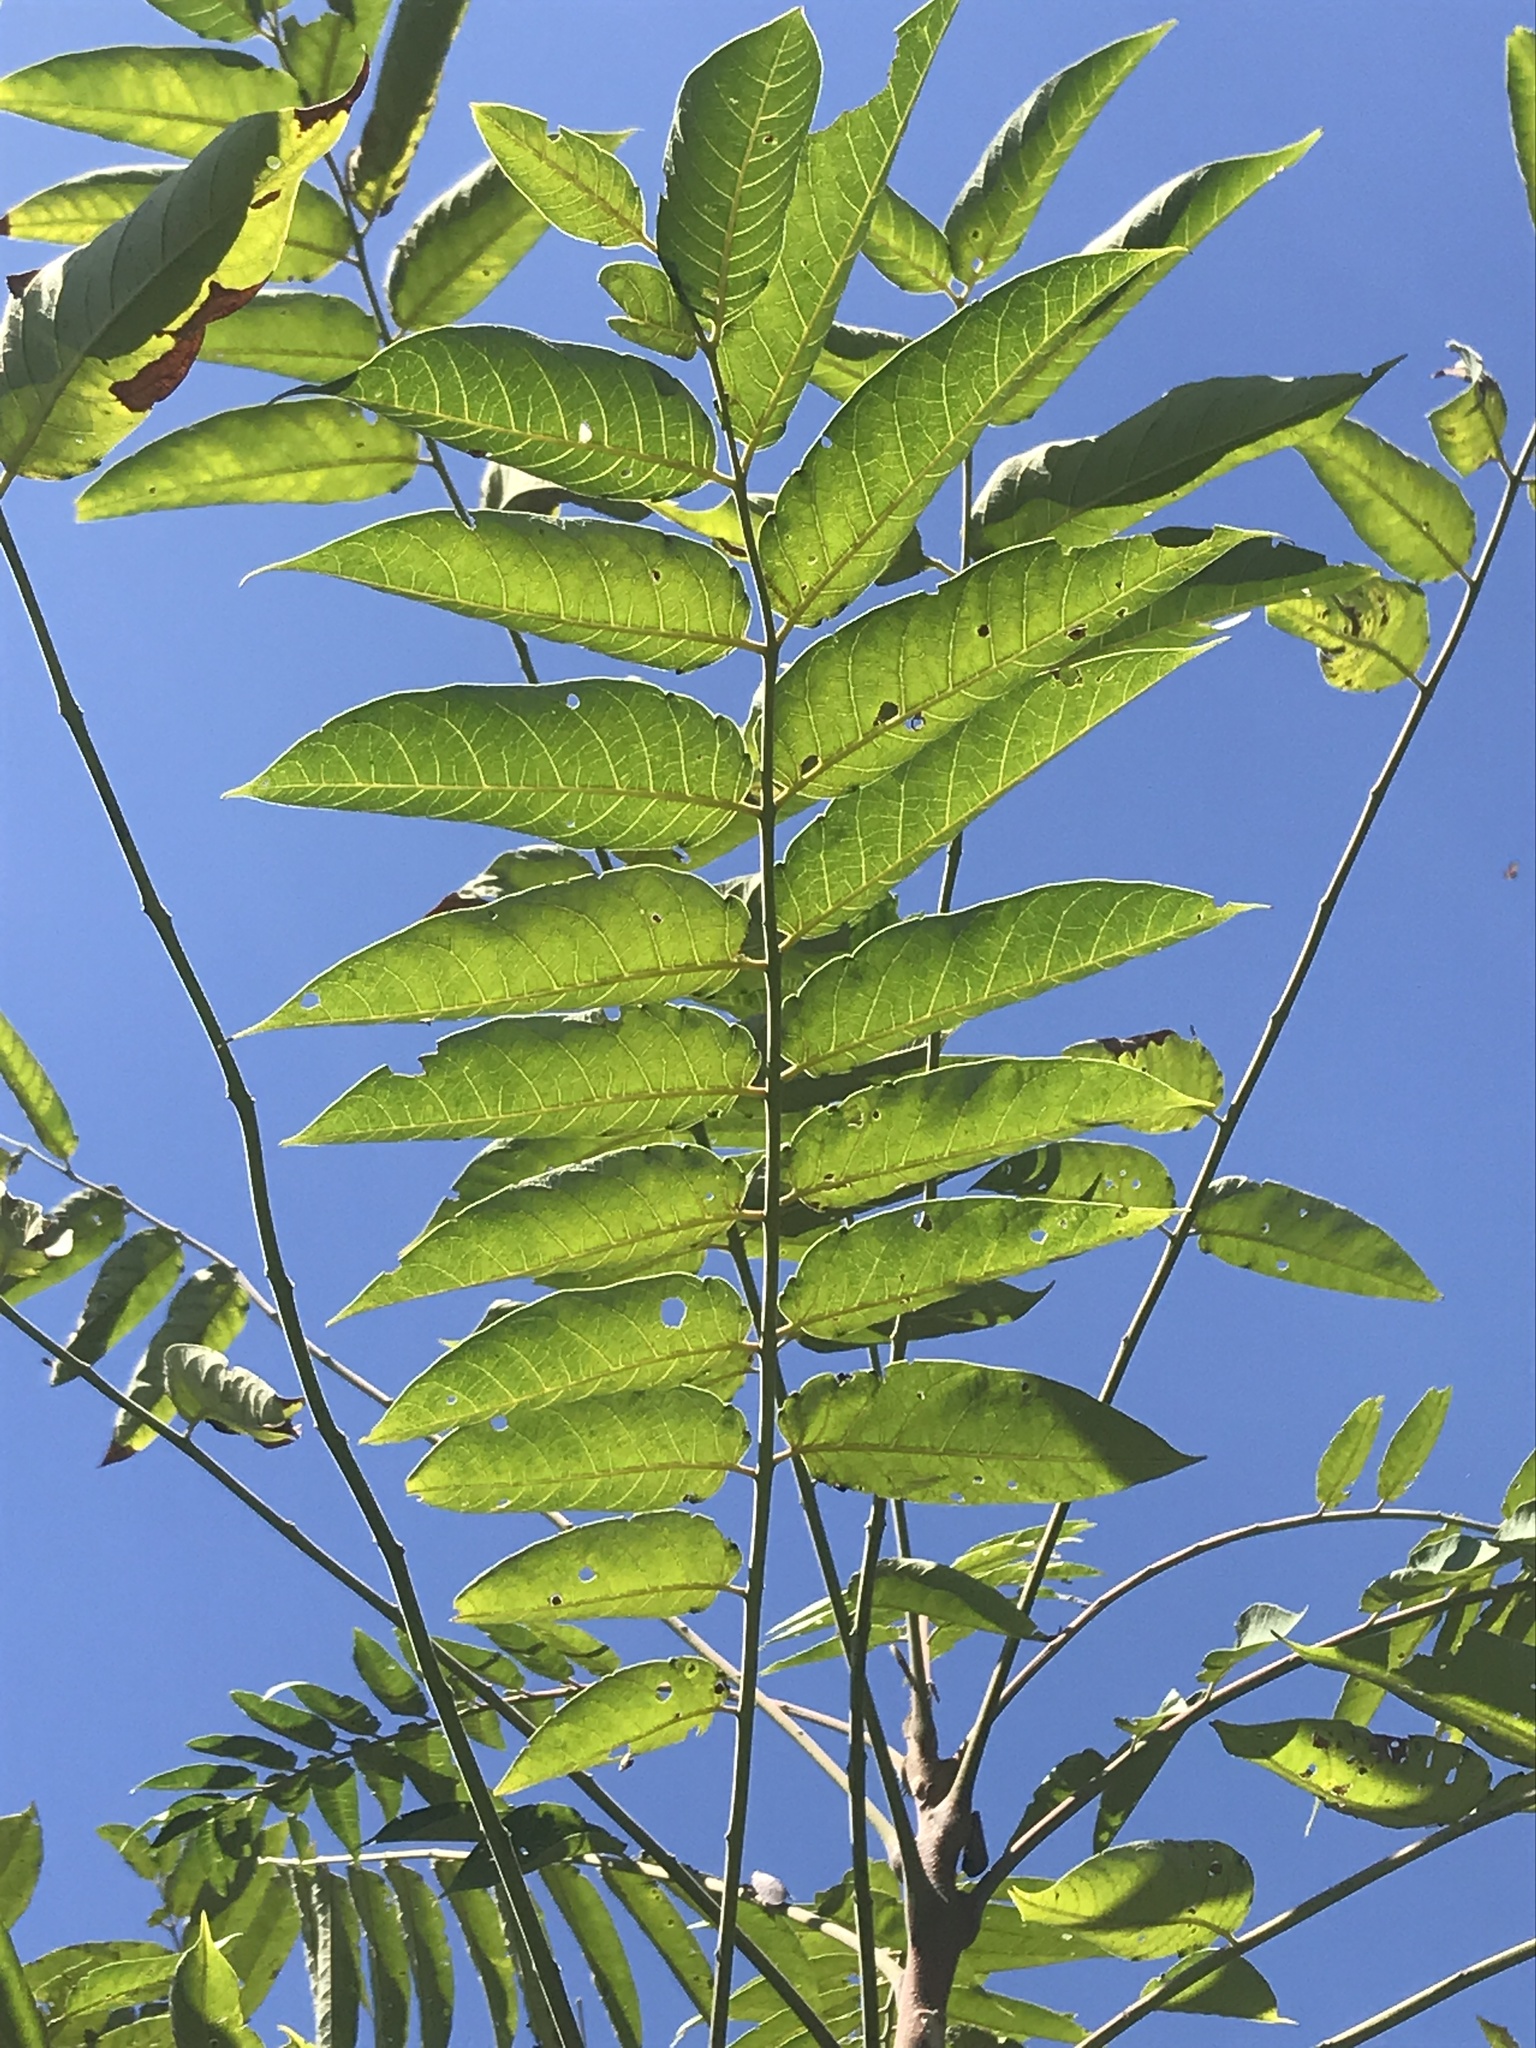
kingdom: Plantae
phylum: Tracheophyta
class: Magnoliopsida
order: Sapindales
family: Simaroubaceae
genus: Ailanthus
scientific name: Ailanthus altissima
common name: Tree-of-heaven
